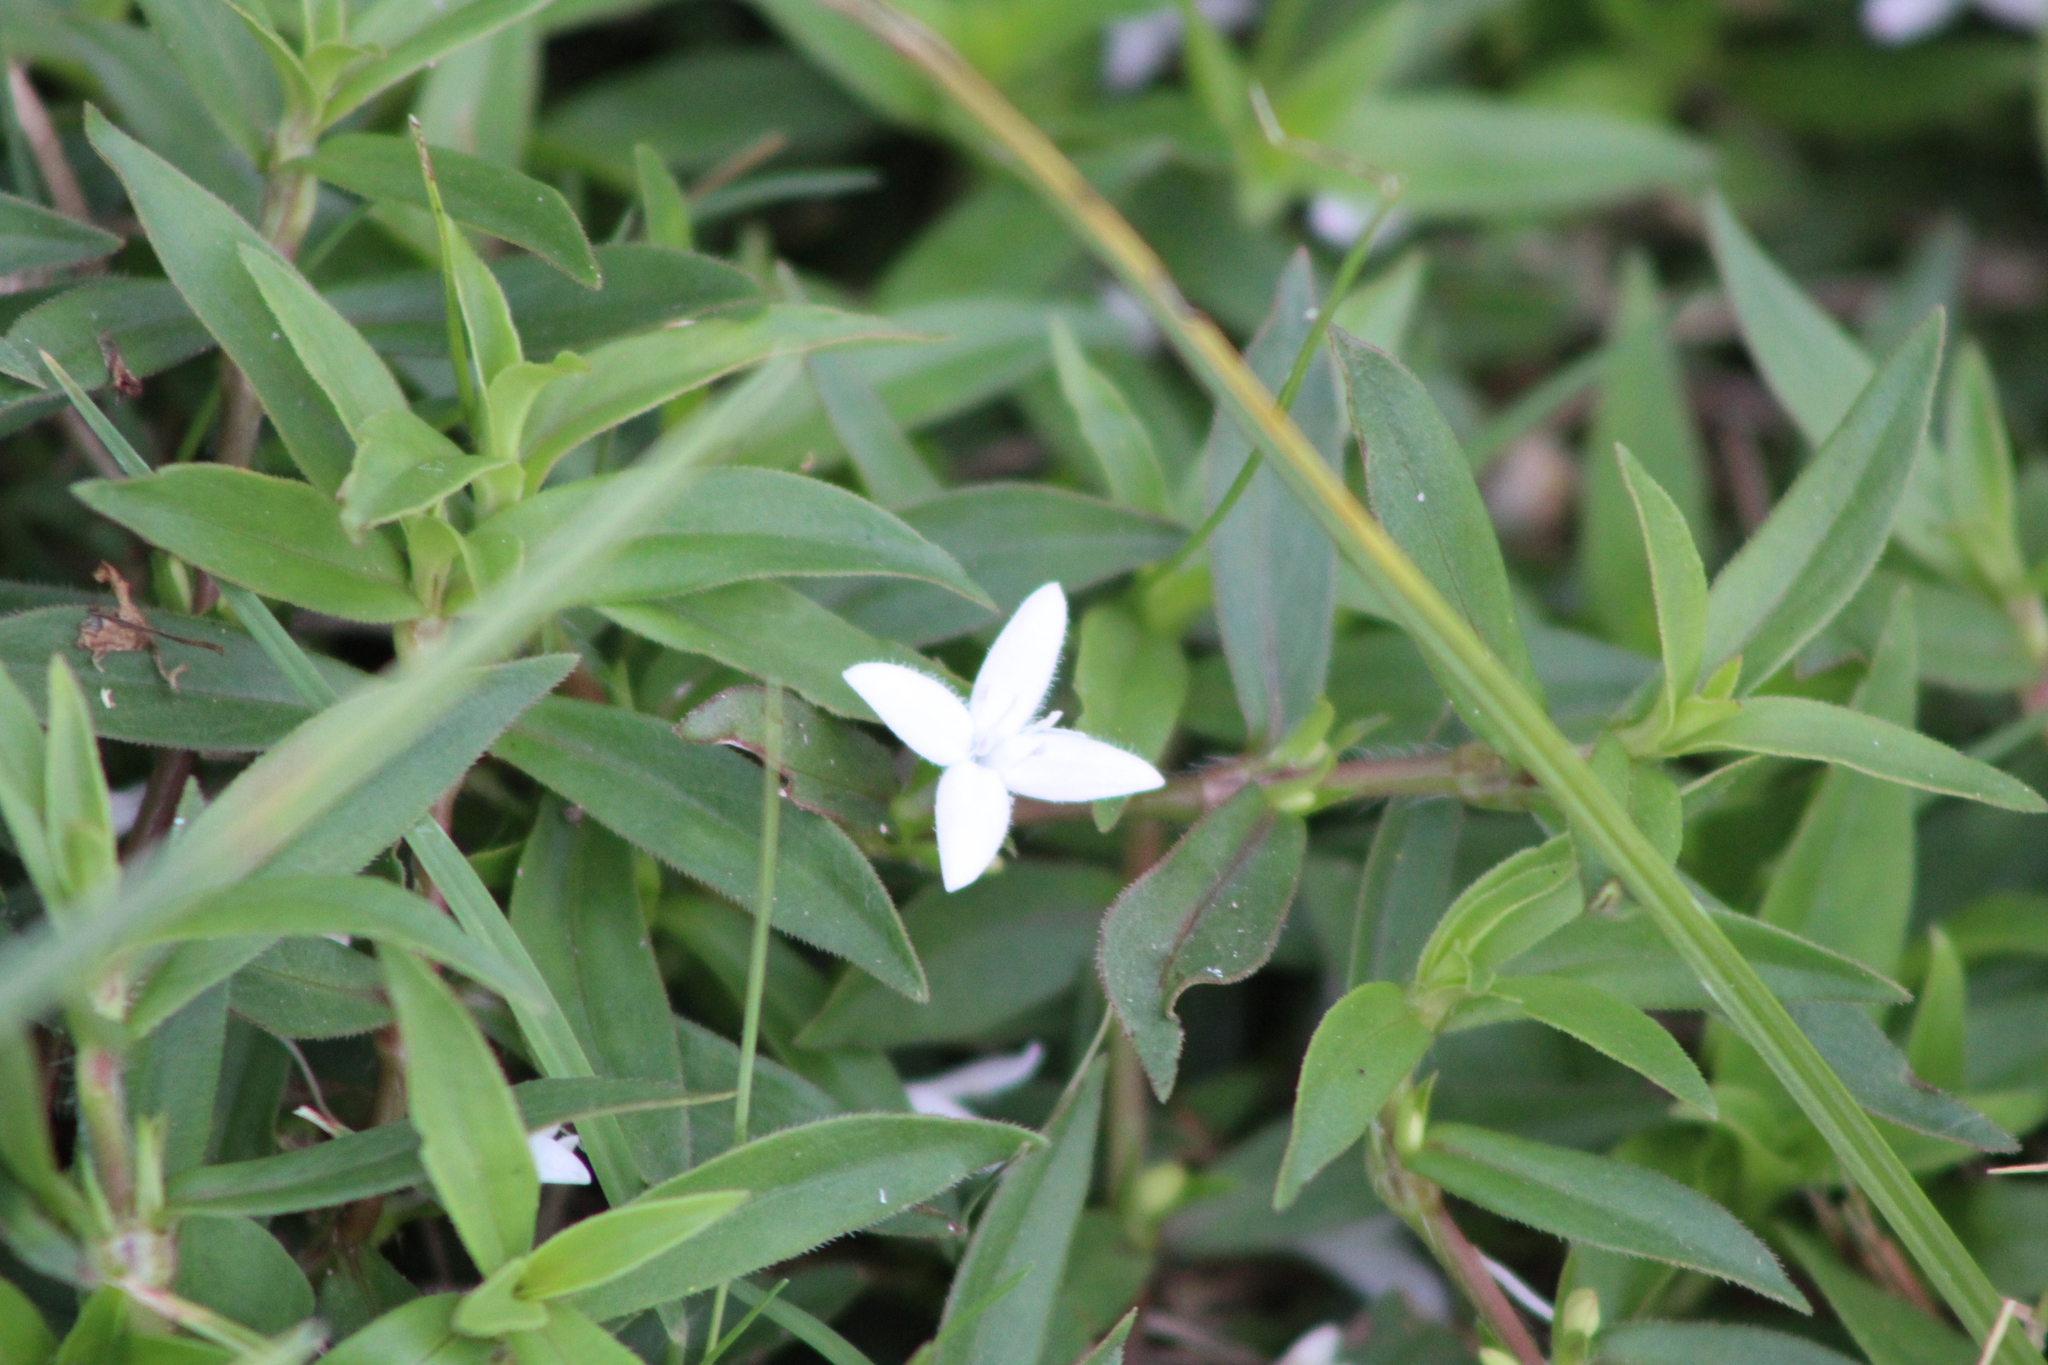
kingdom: Plantae
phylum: Tracheophyta
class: Magnoliopsida
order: Gentianales
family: Rubiaceae
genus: Diodia
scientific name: Diodia virginiana
